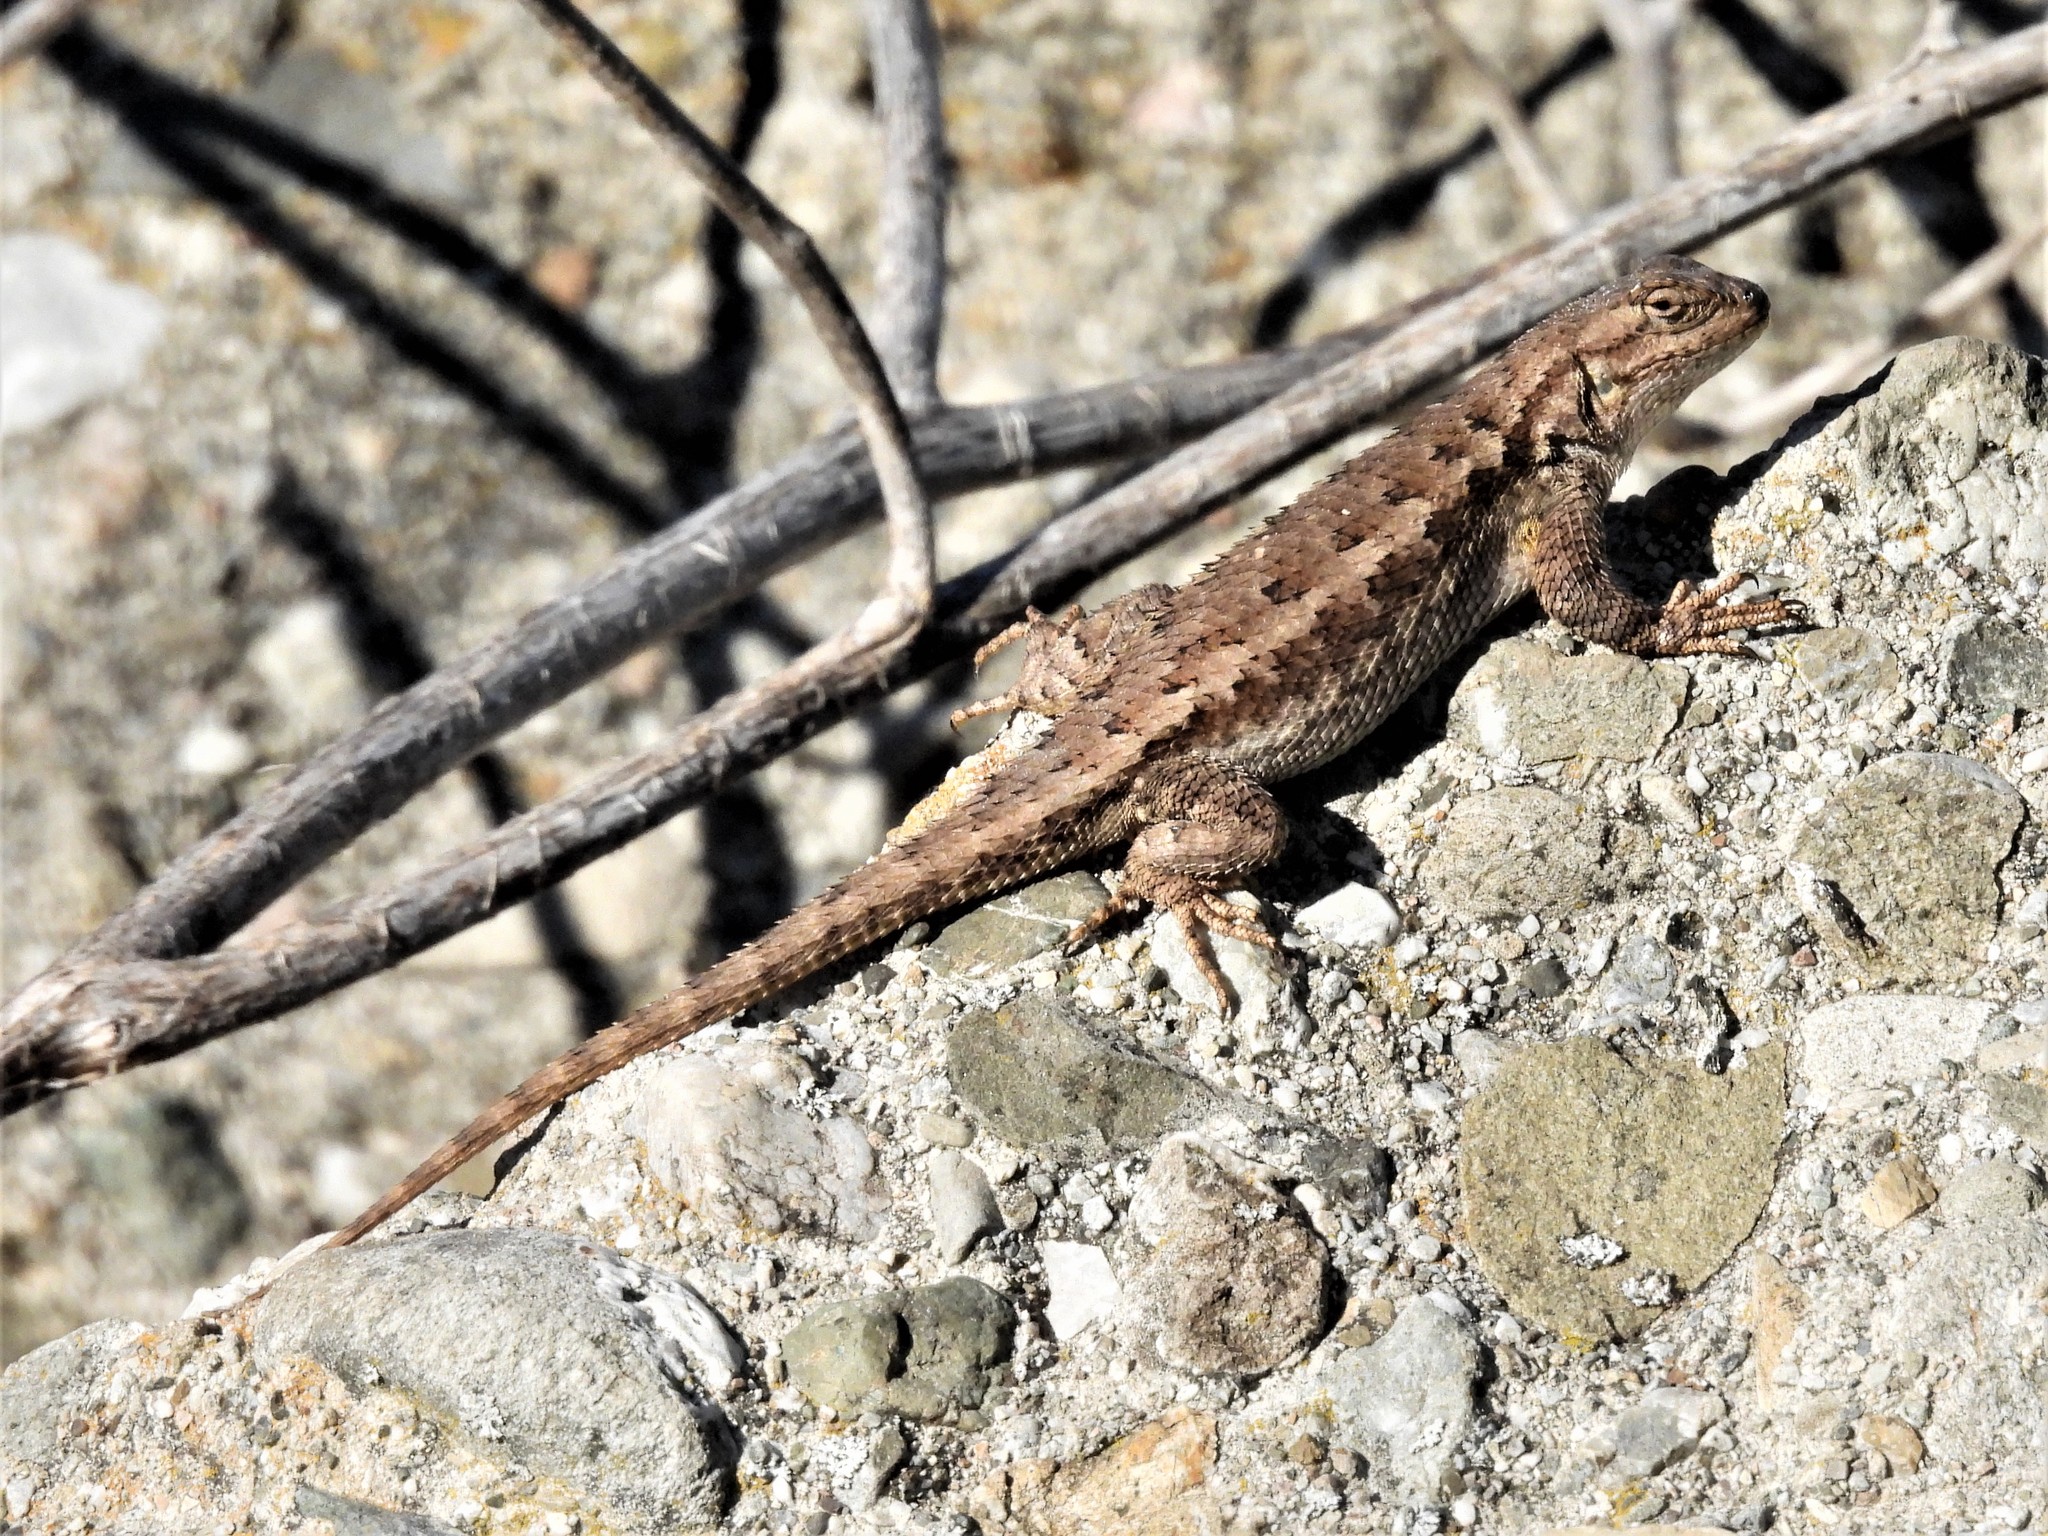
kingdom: Animalia
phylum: Chordata
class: Squamata
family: Phrynosomatidae
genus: Sceloporus
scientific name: Sceloporus occidentalis
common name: Western fence lizard
